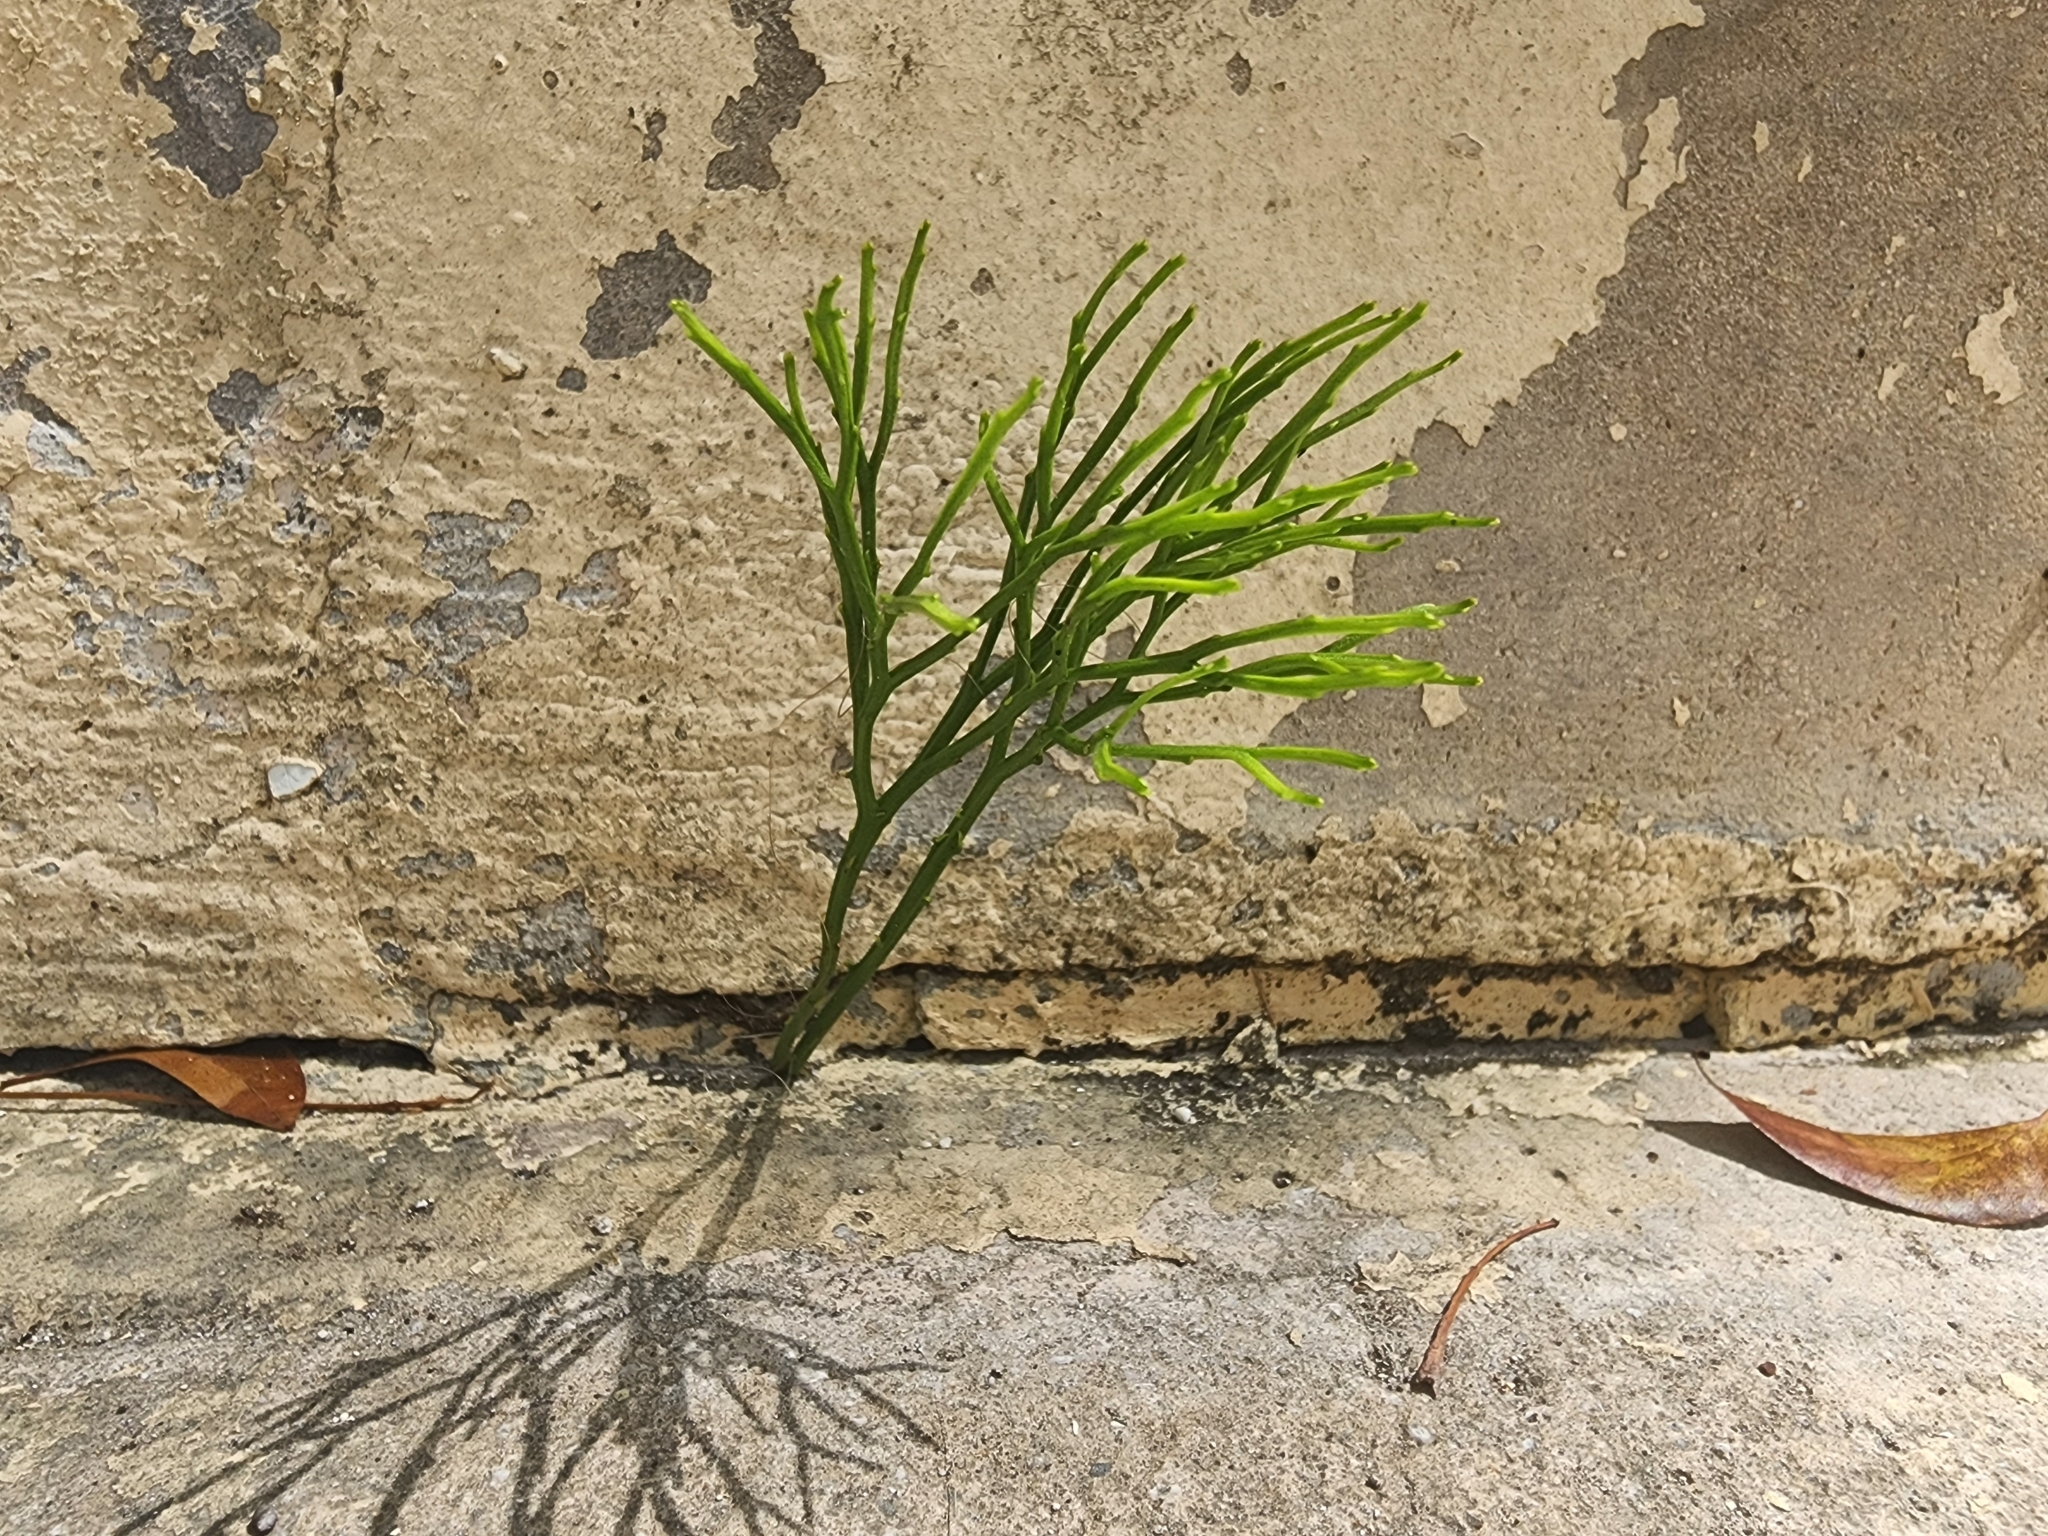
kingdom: Plantae
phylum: Tracheophyta
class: Polypodiopsida
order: Psilotales
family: Psilotaceae
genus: Psilotum
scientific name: Psilotum nudum
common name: Skeleton fork fern
